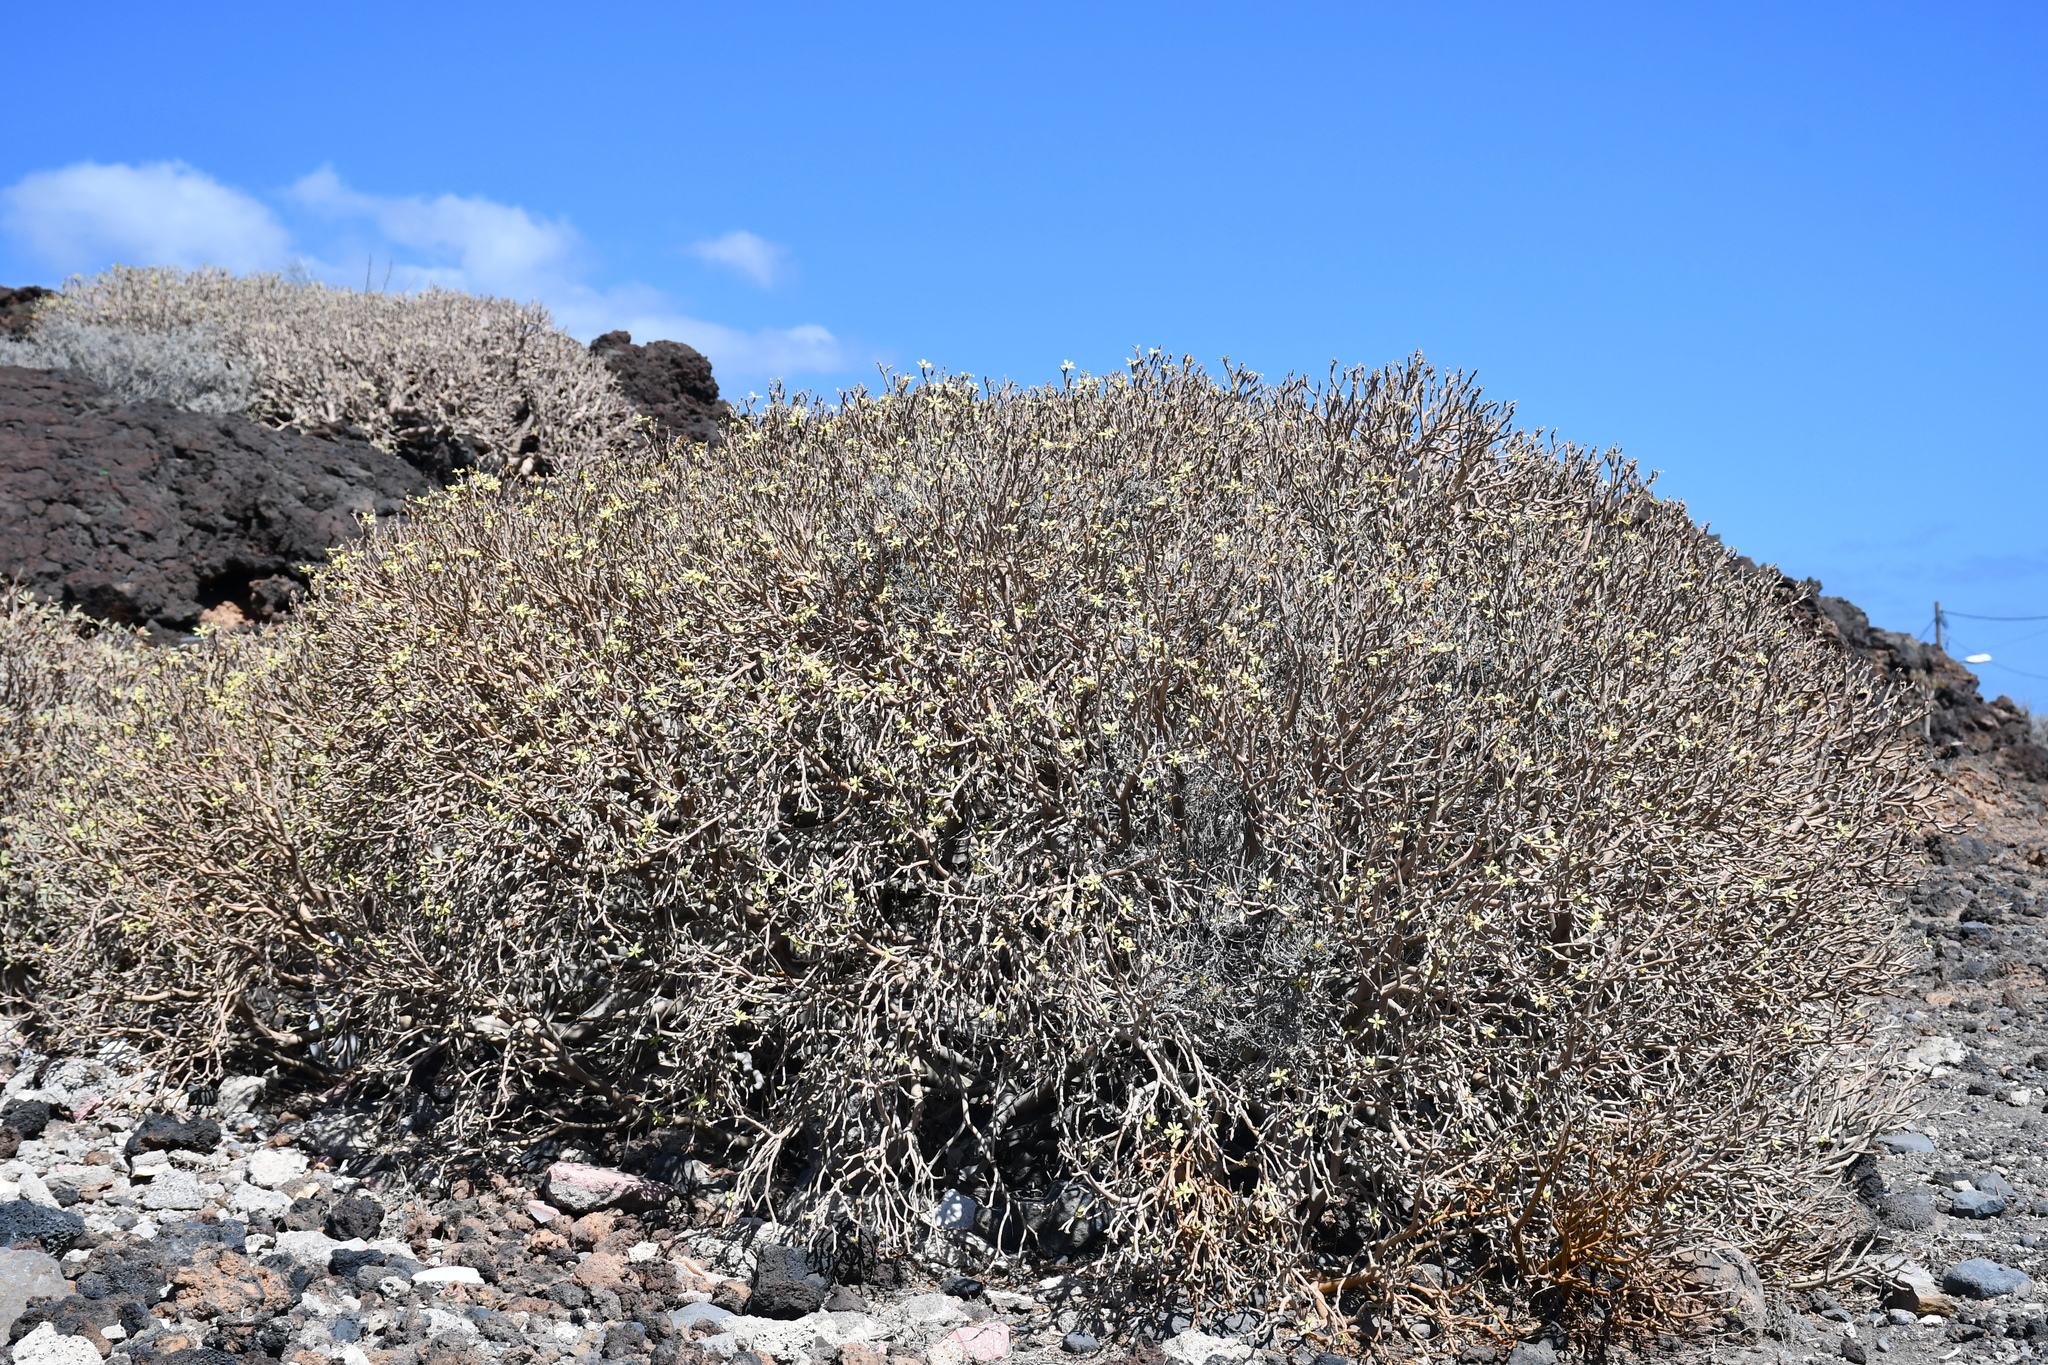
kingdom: Plantae
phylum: Tracheophyta
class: Magnoliopsida
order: Malpighiales
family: Euphorbiaceae
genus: Euphorbia
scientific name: Euphorbia balsamifera
